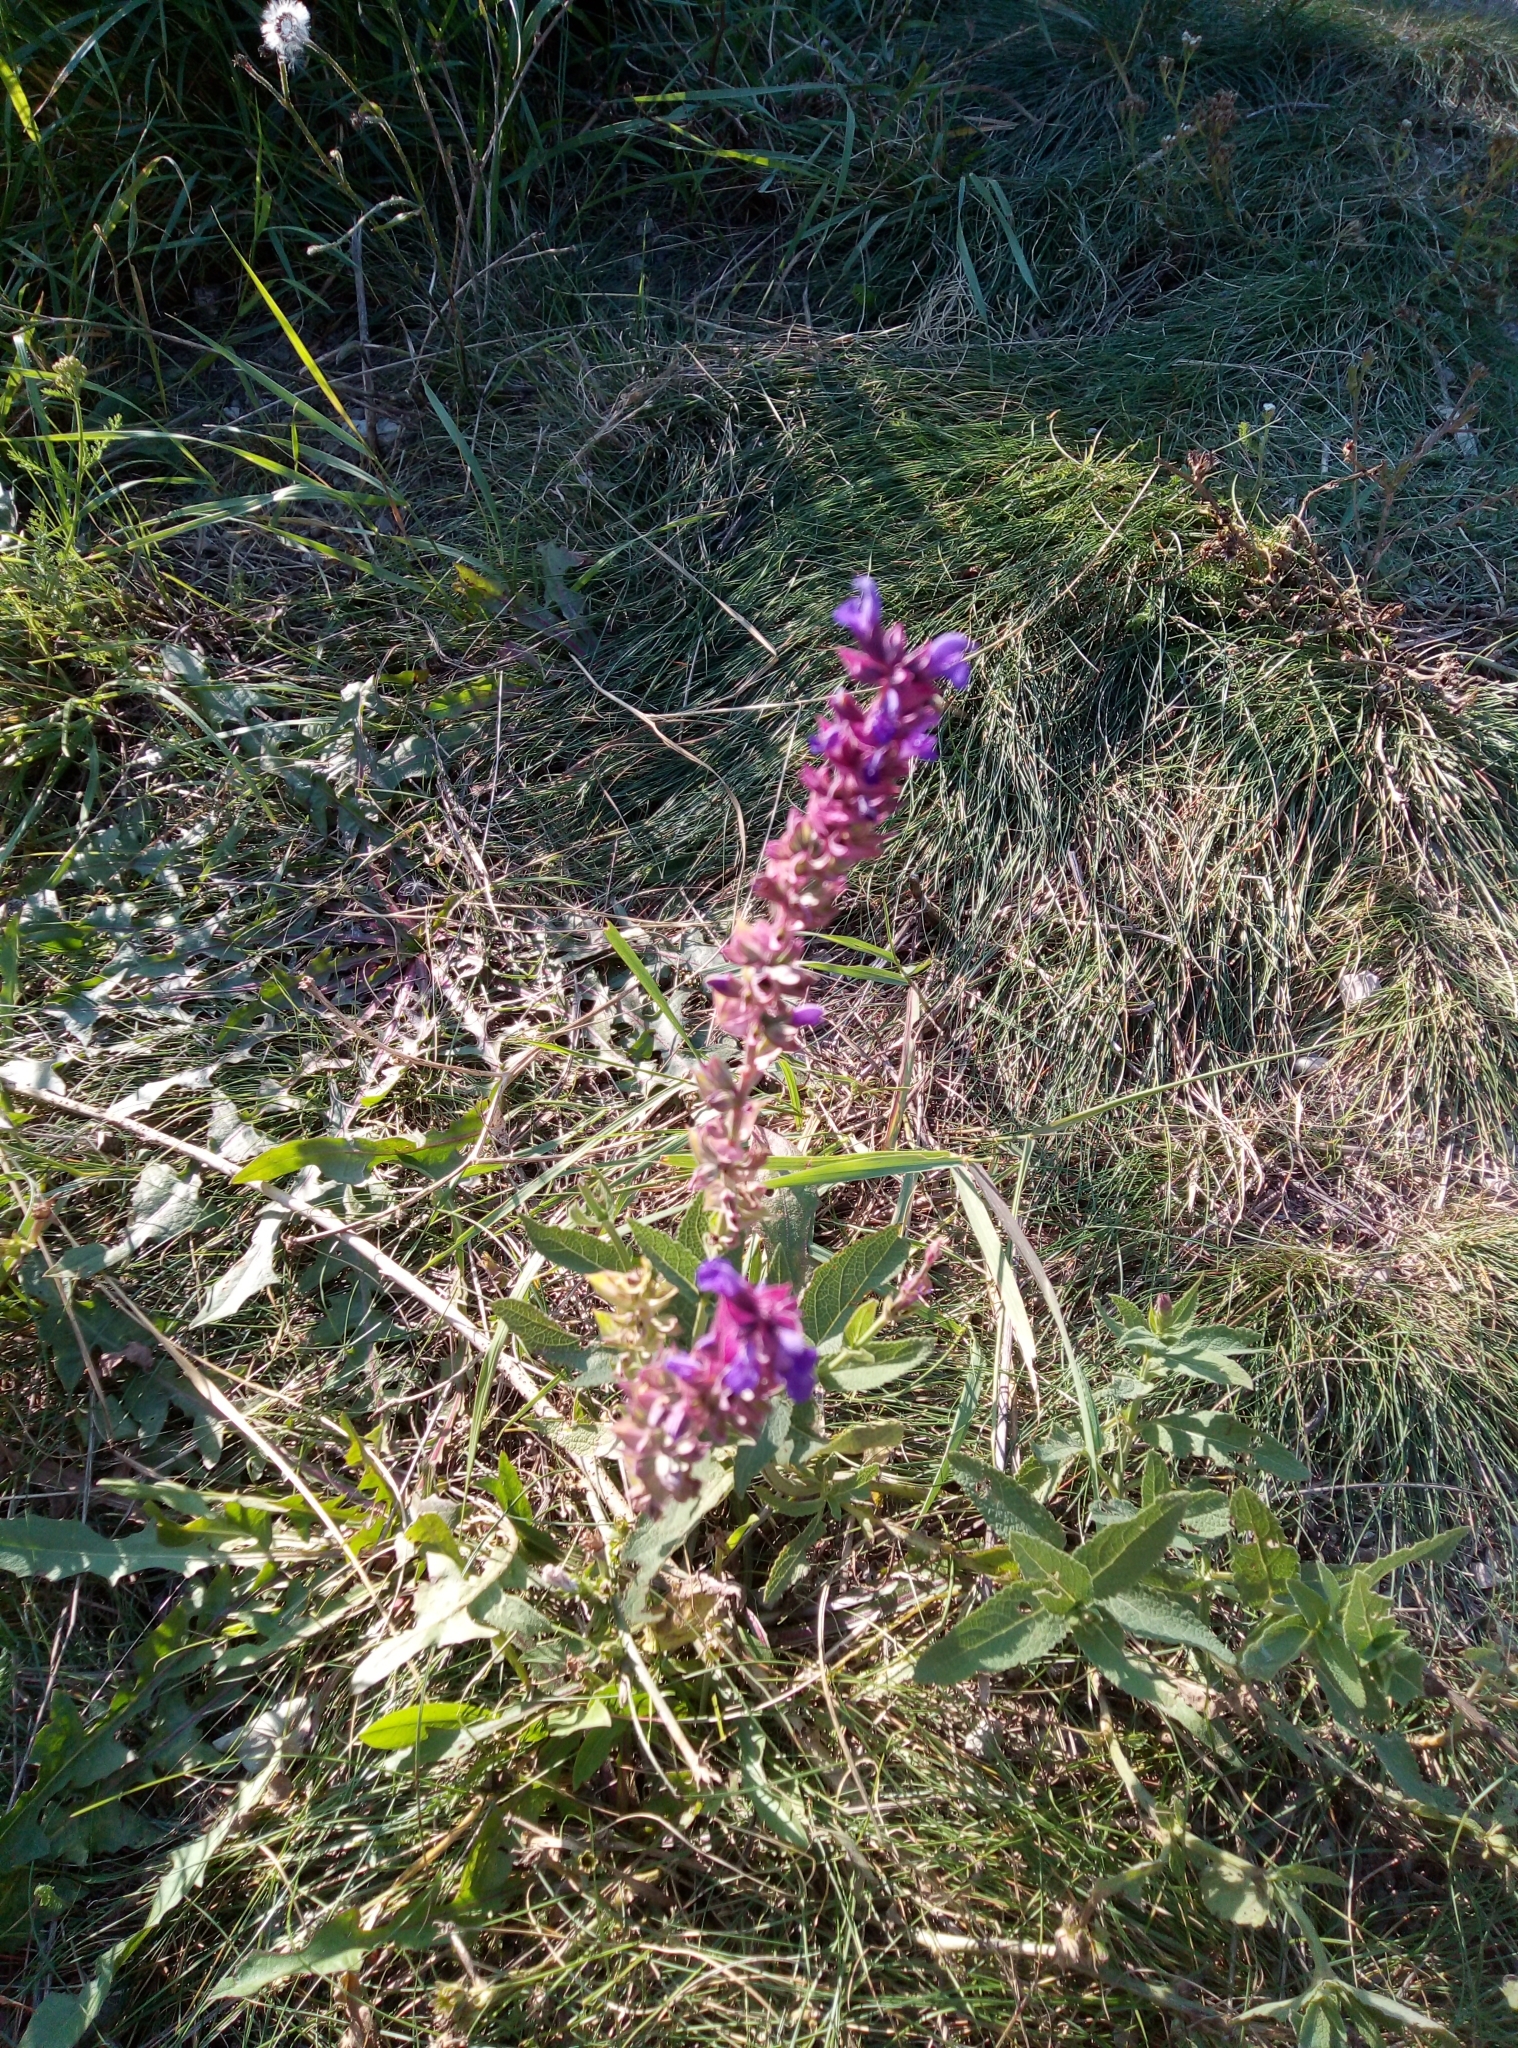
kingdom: Plantae
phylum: Tracheophyta
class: Magnoliopsida
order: Lamiales
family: Lamiaceae
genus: Salvia
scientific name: Salvia nemorosa
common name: Balkan clary
